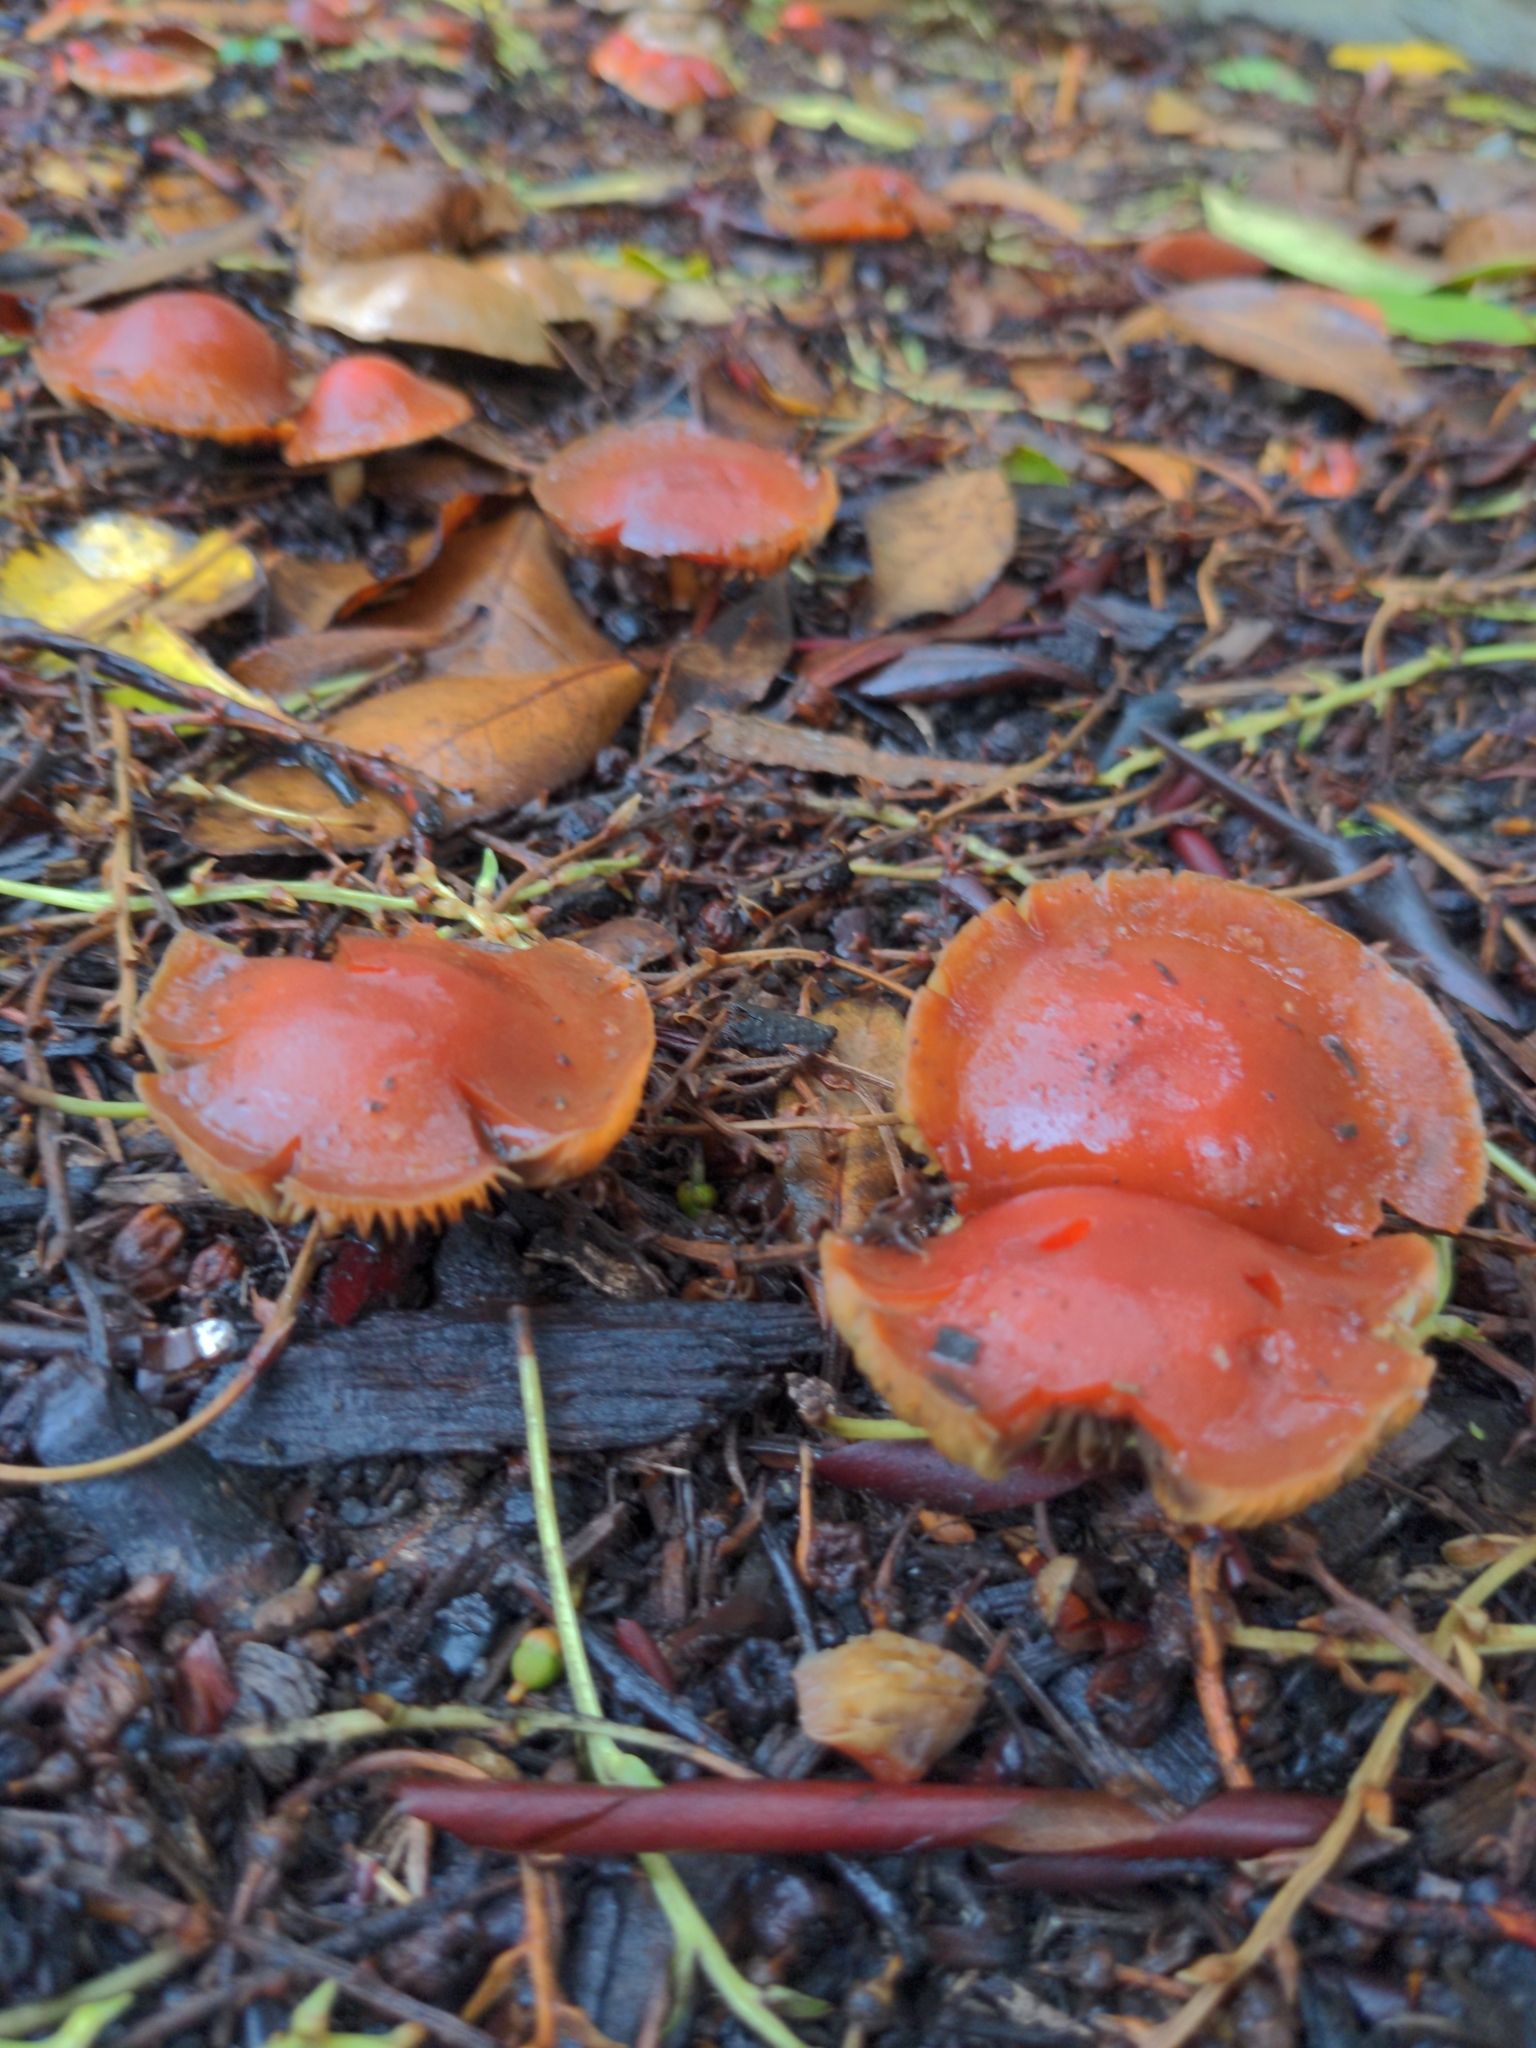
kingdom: Fungi
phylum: Basidiomycota
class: Agaricomycetes
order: Agaricales
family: Strophariaceae
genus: Leratiomyces
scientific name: Leratiomyces ceres
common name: Redlead roundhead
